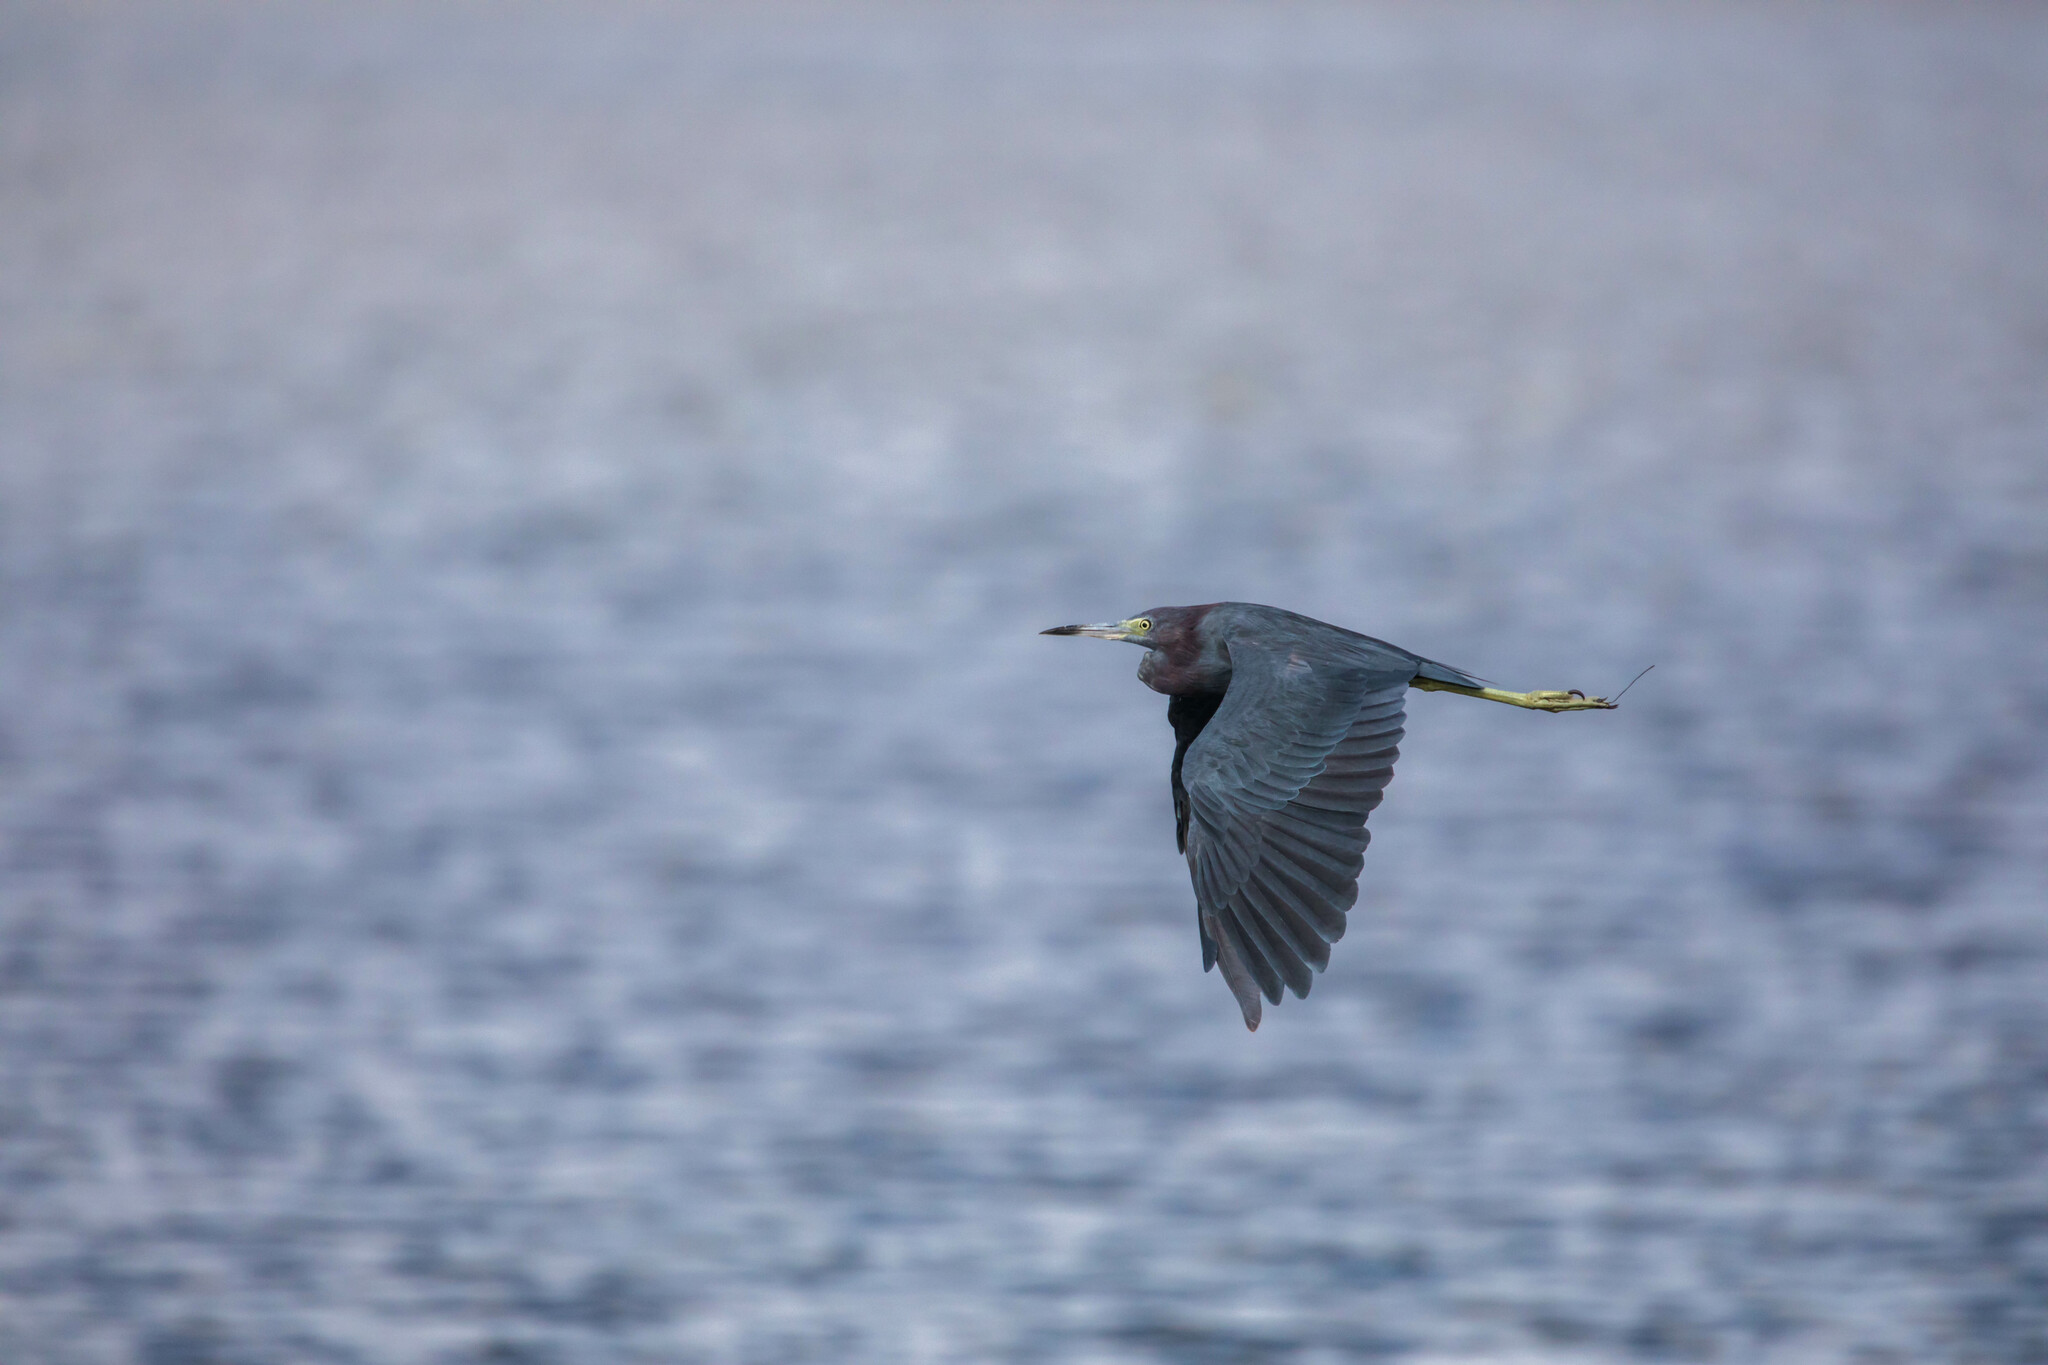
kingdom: Animalia
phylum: Chordata
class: Aves
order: Pelecaniformes
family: Ardeidae
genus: Egretta
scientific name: Egretta caerulea
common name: Little blue heron
